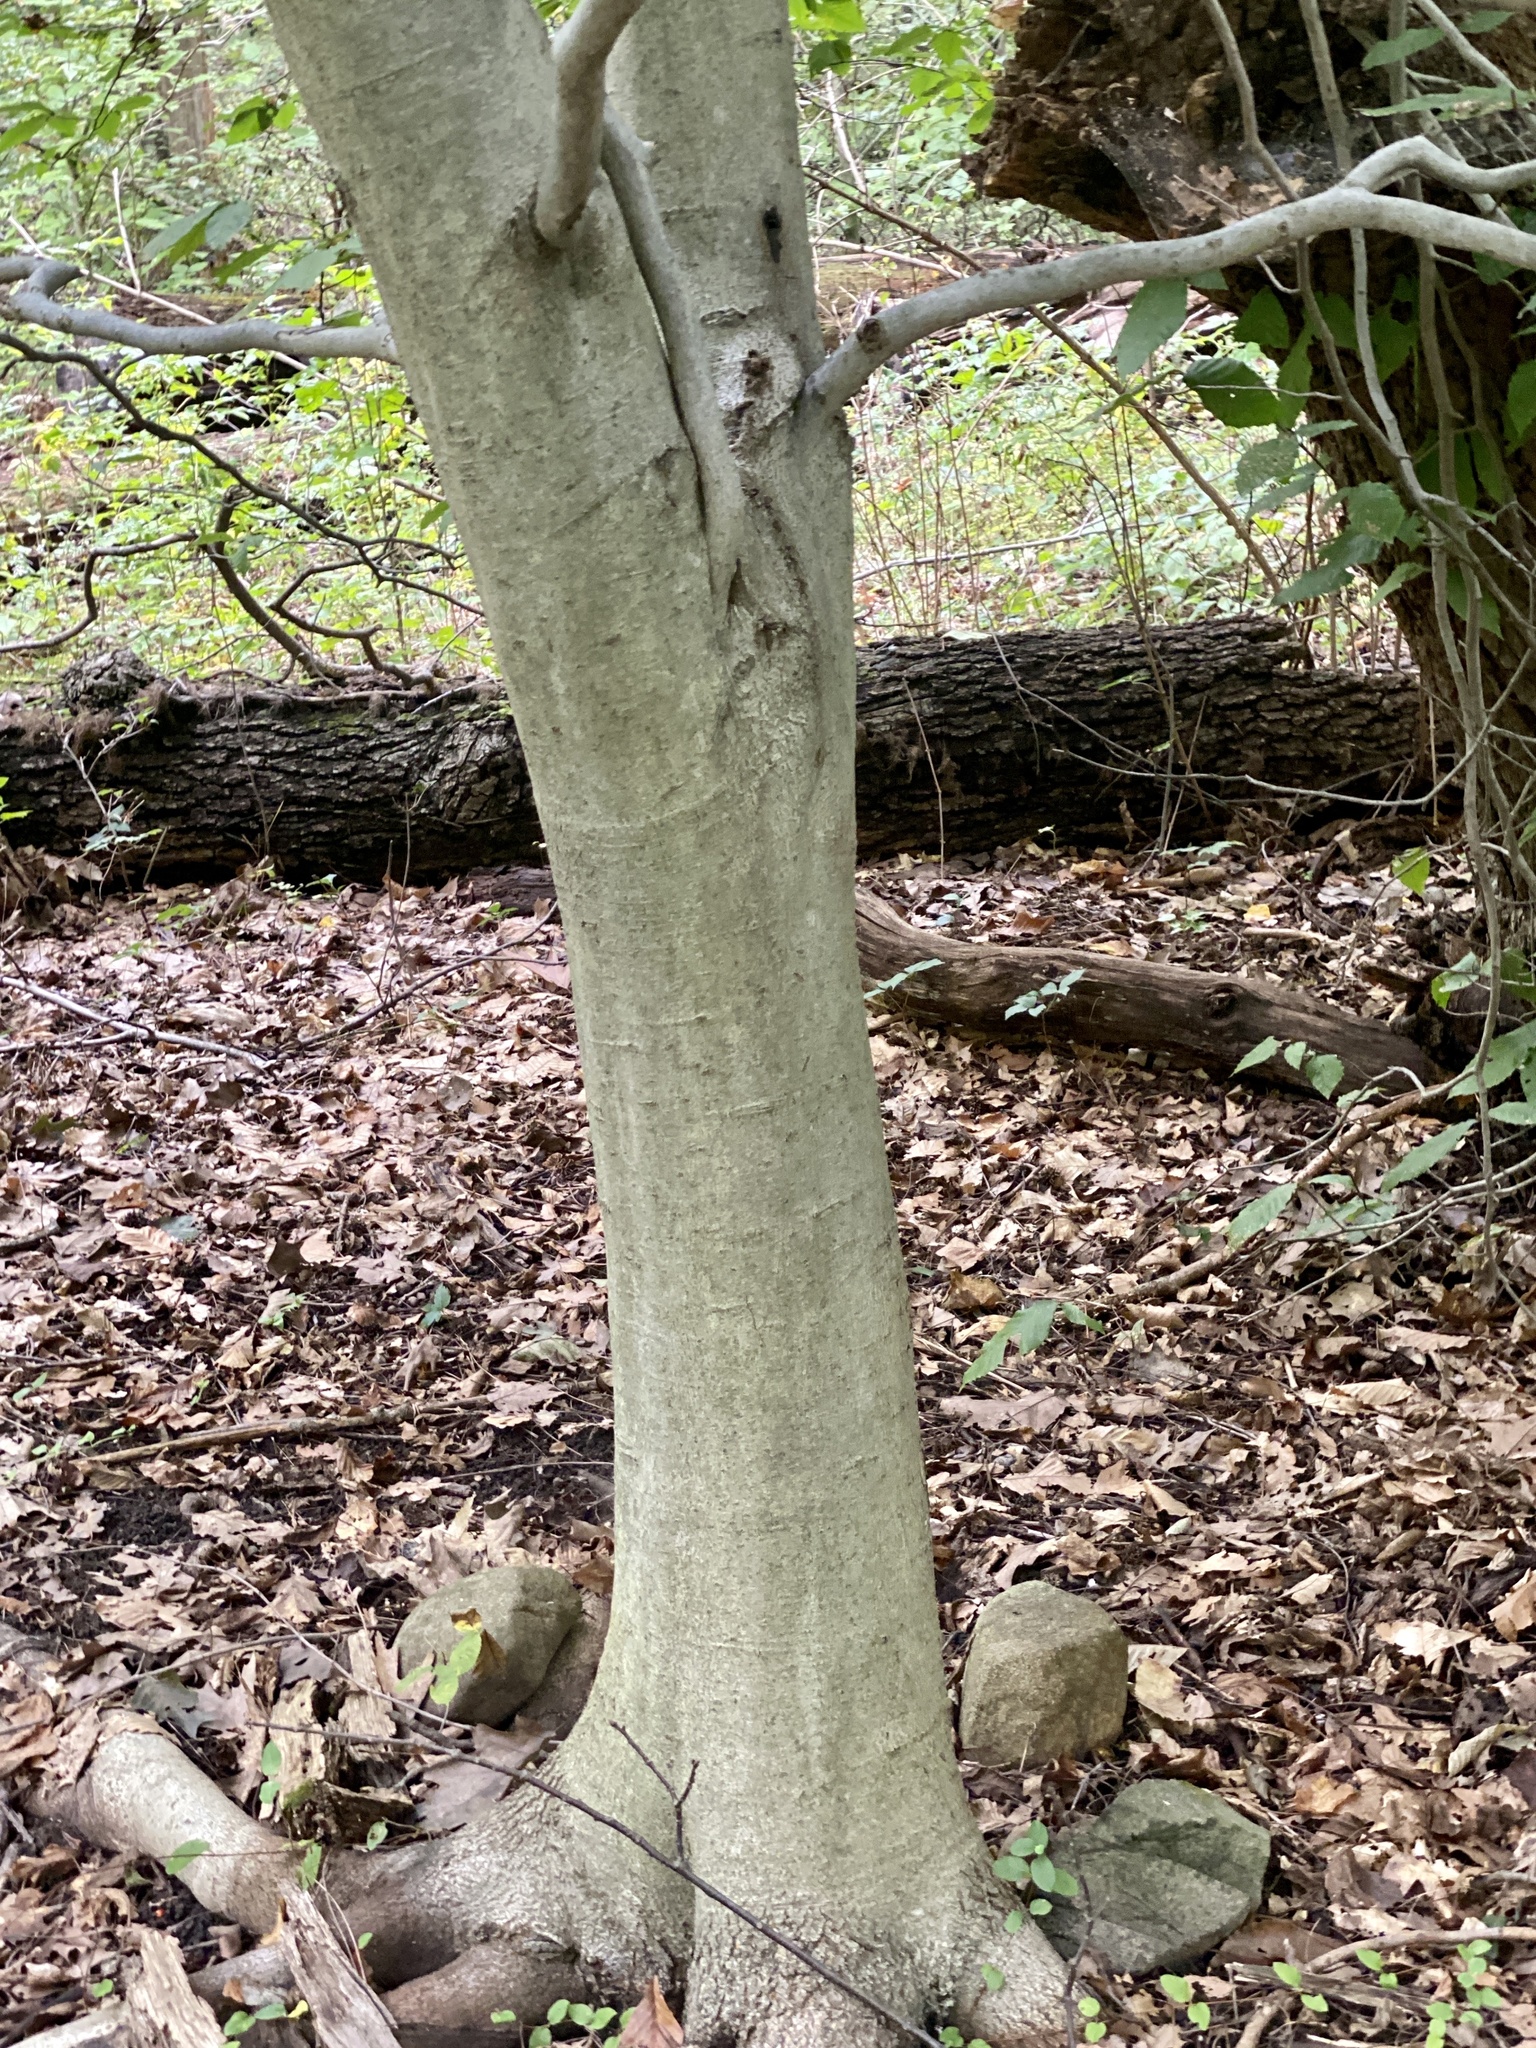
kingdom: Plantae
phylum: Tracheophyta
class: Magnoliopsida
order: Fagales
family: Fagaceae
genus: Fagus
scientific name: Fagus grandifolia
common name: American beech
